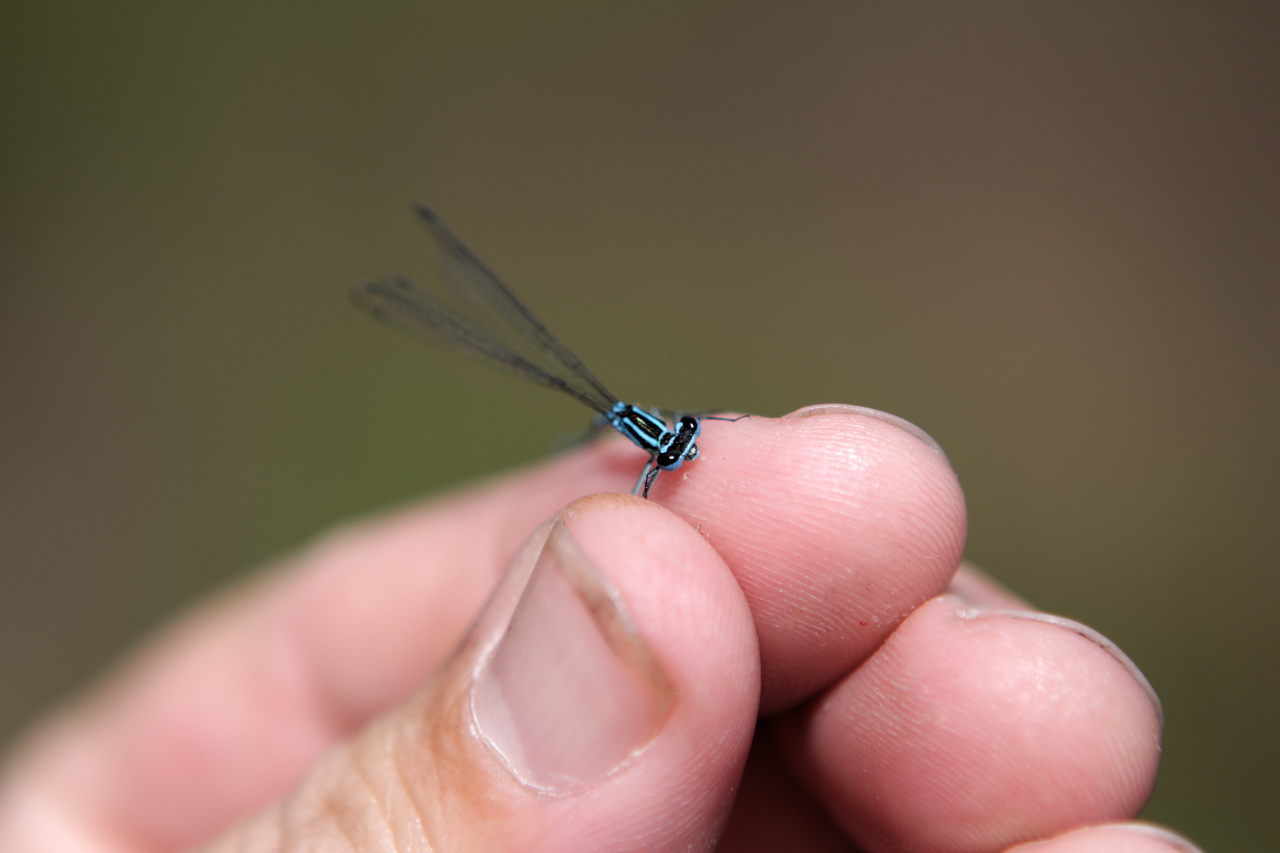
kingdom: Animalia
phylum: Arthropoda
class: Insecta
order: Odonata
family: Coenagrionidae
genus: Coenagrion
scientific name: Coenagrion puella
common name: Azure damselfly
